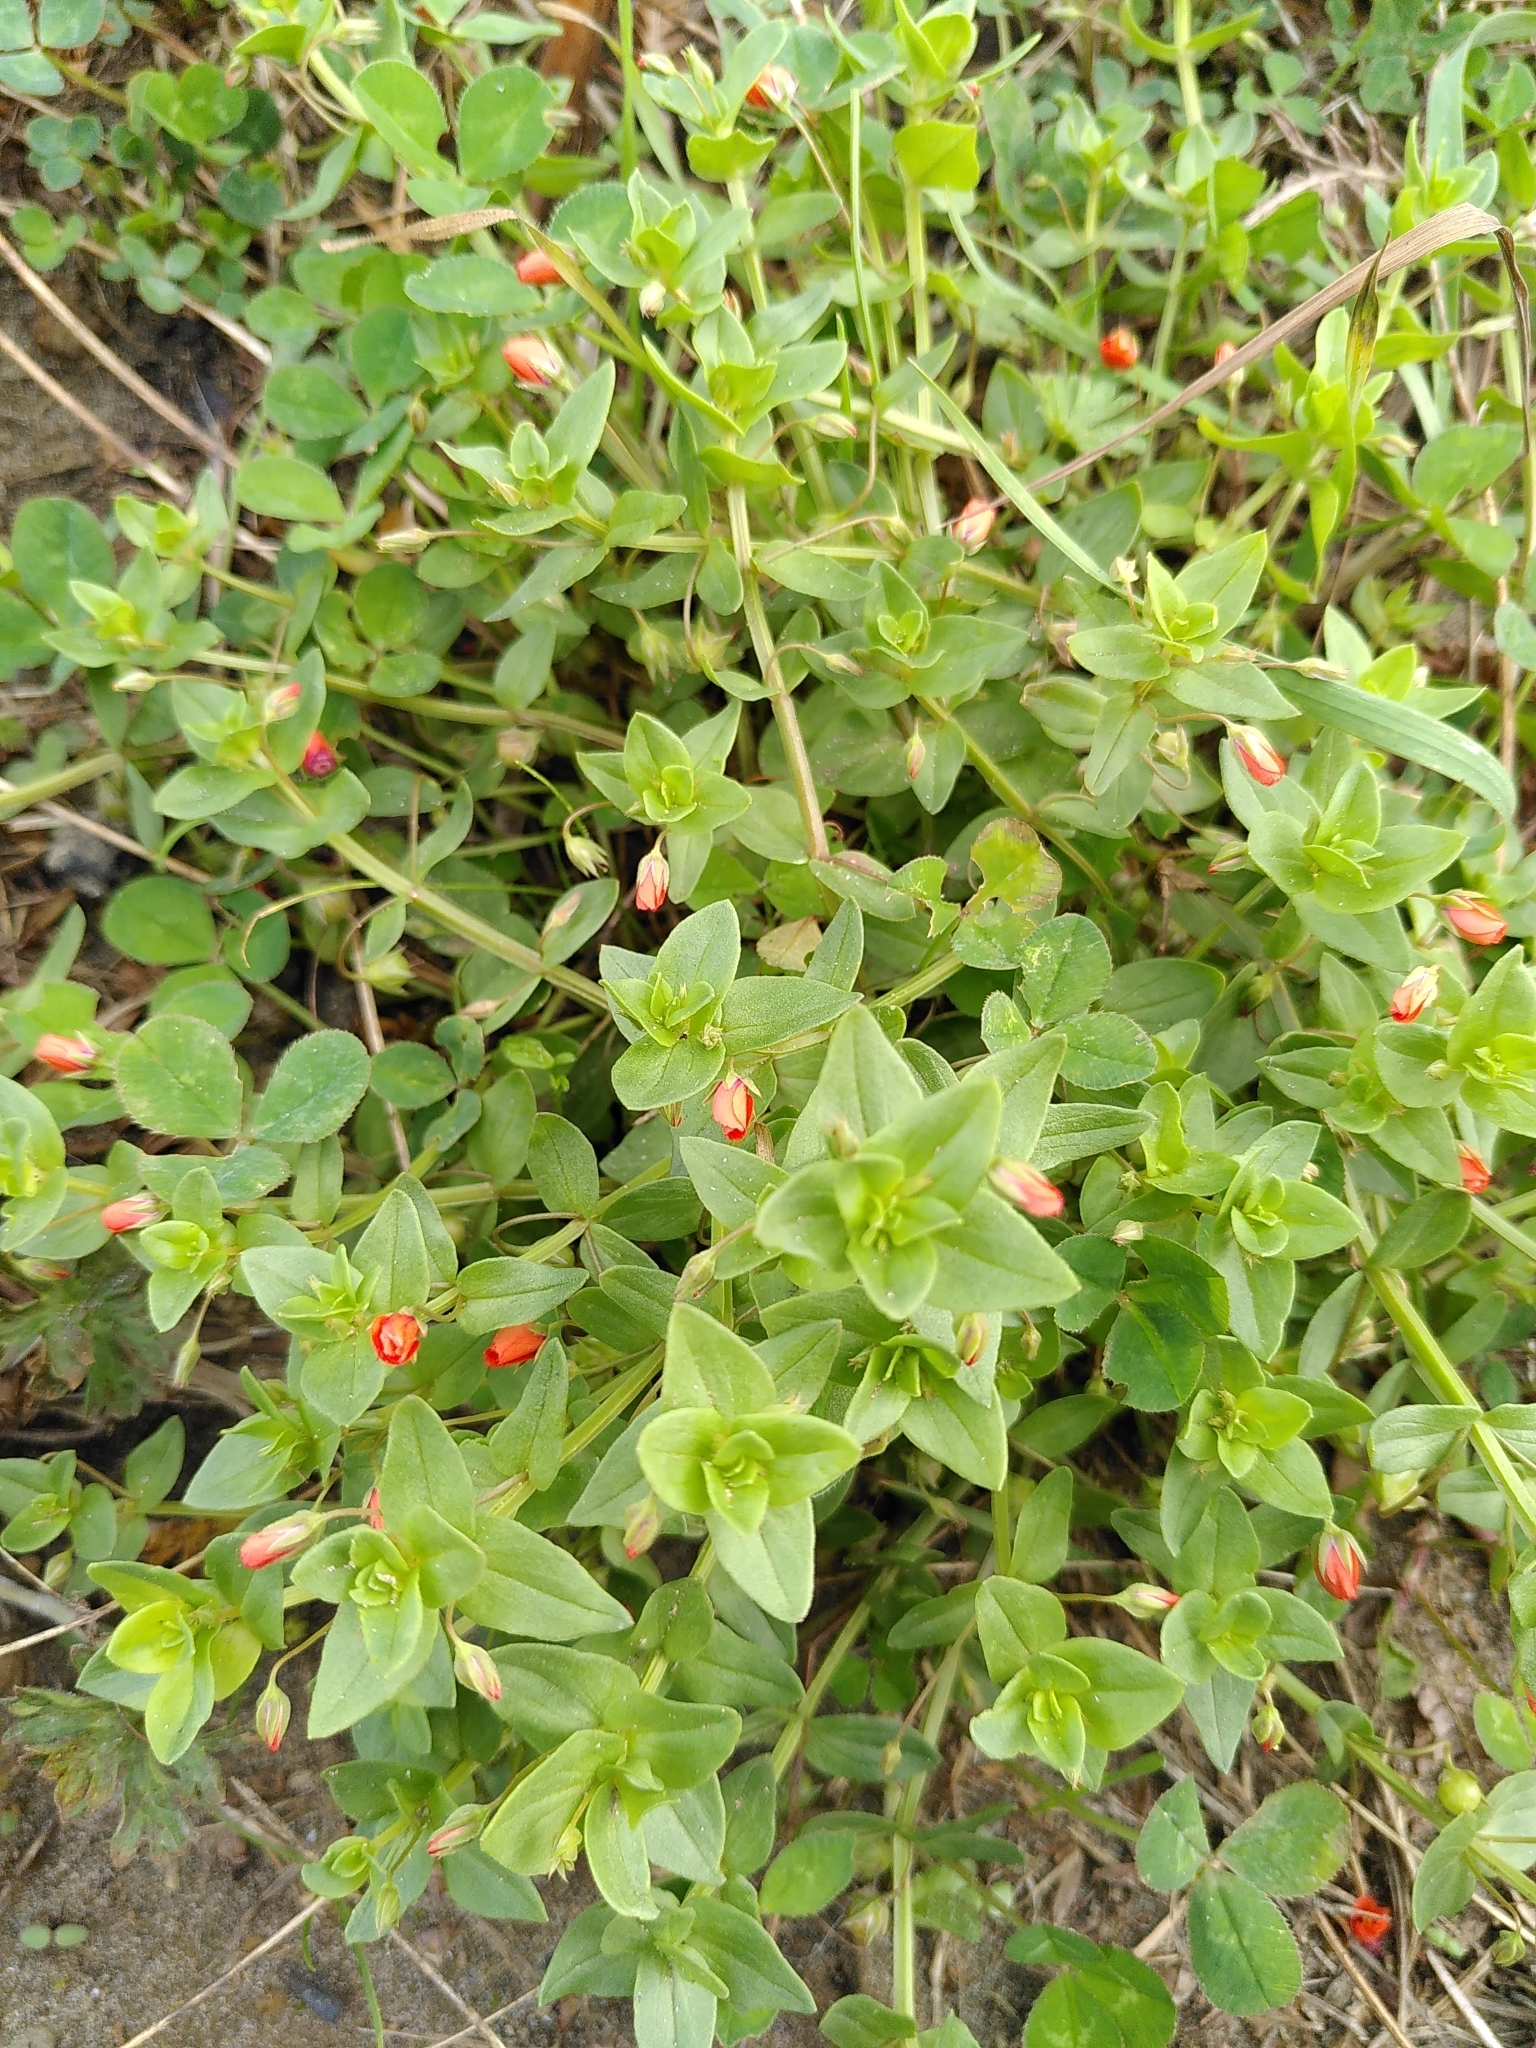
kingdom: Plantae
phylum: Tracheophyta
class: Magnoliopsida
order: Ericales
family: Primulaceae
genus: Lysimachia
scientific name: Lysimachia arvensis
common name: Scarlet pimpernel
